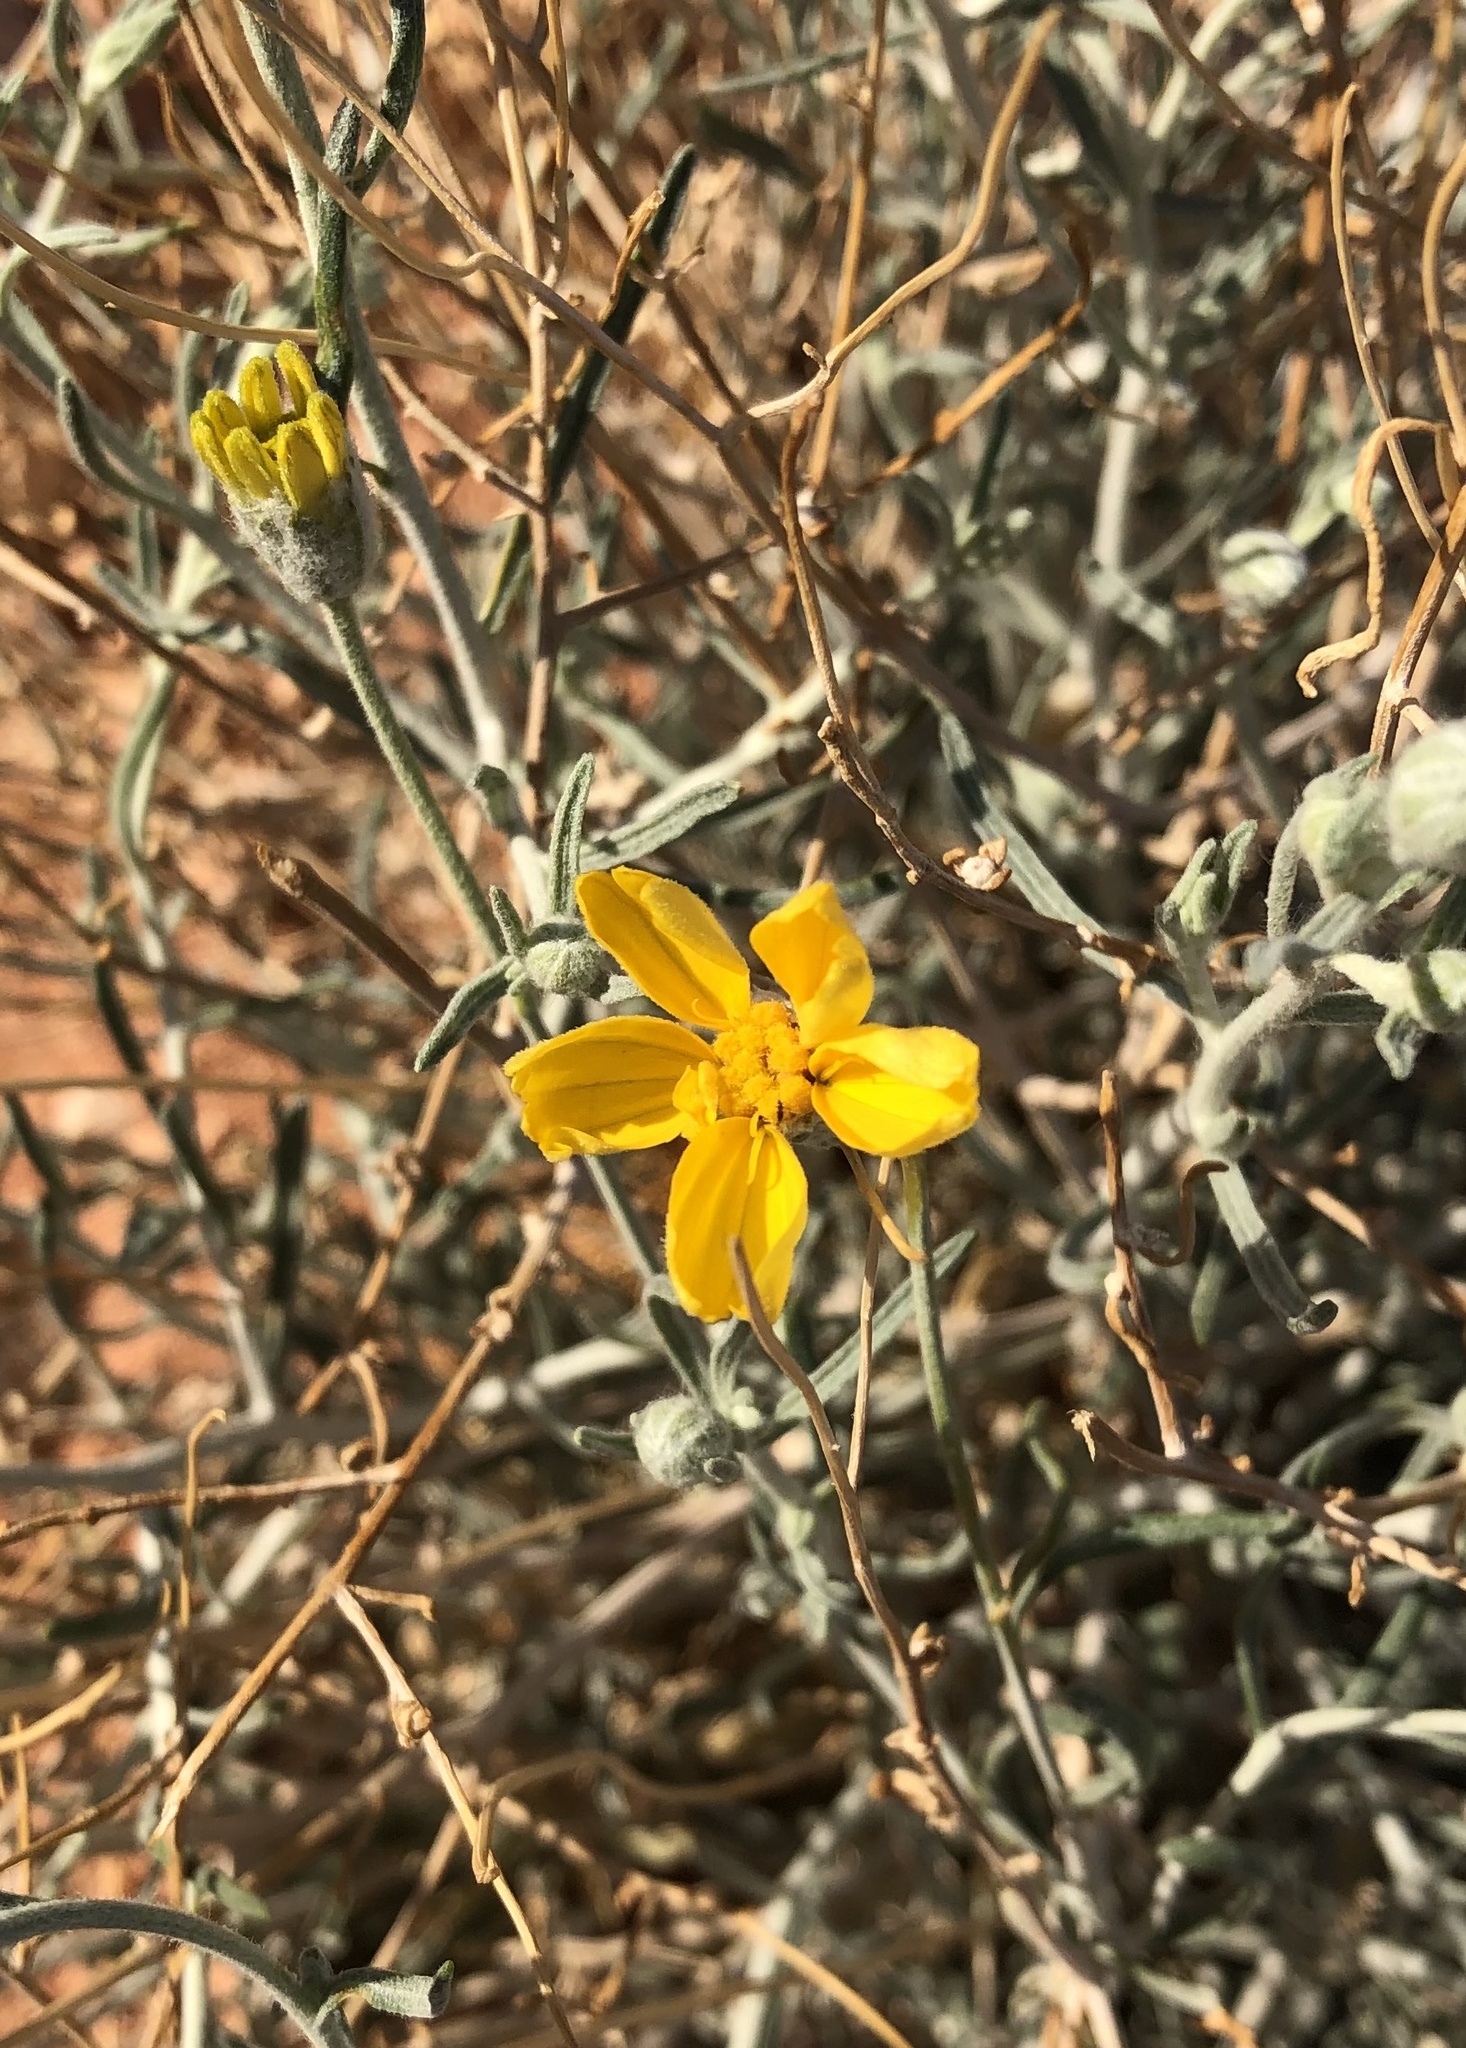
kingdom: Plantae
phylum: Tracheophyta
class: Magnoliopsida
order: Asterales
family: Asteraceae
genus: Psilostrophe
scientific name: Psilostrophe cooperi
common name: White-stem paper-flower
